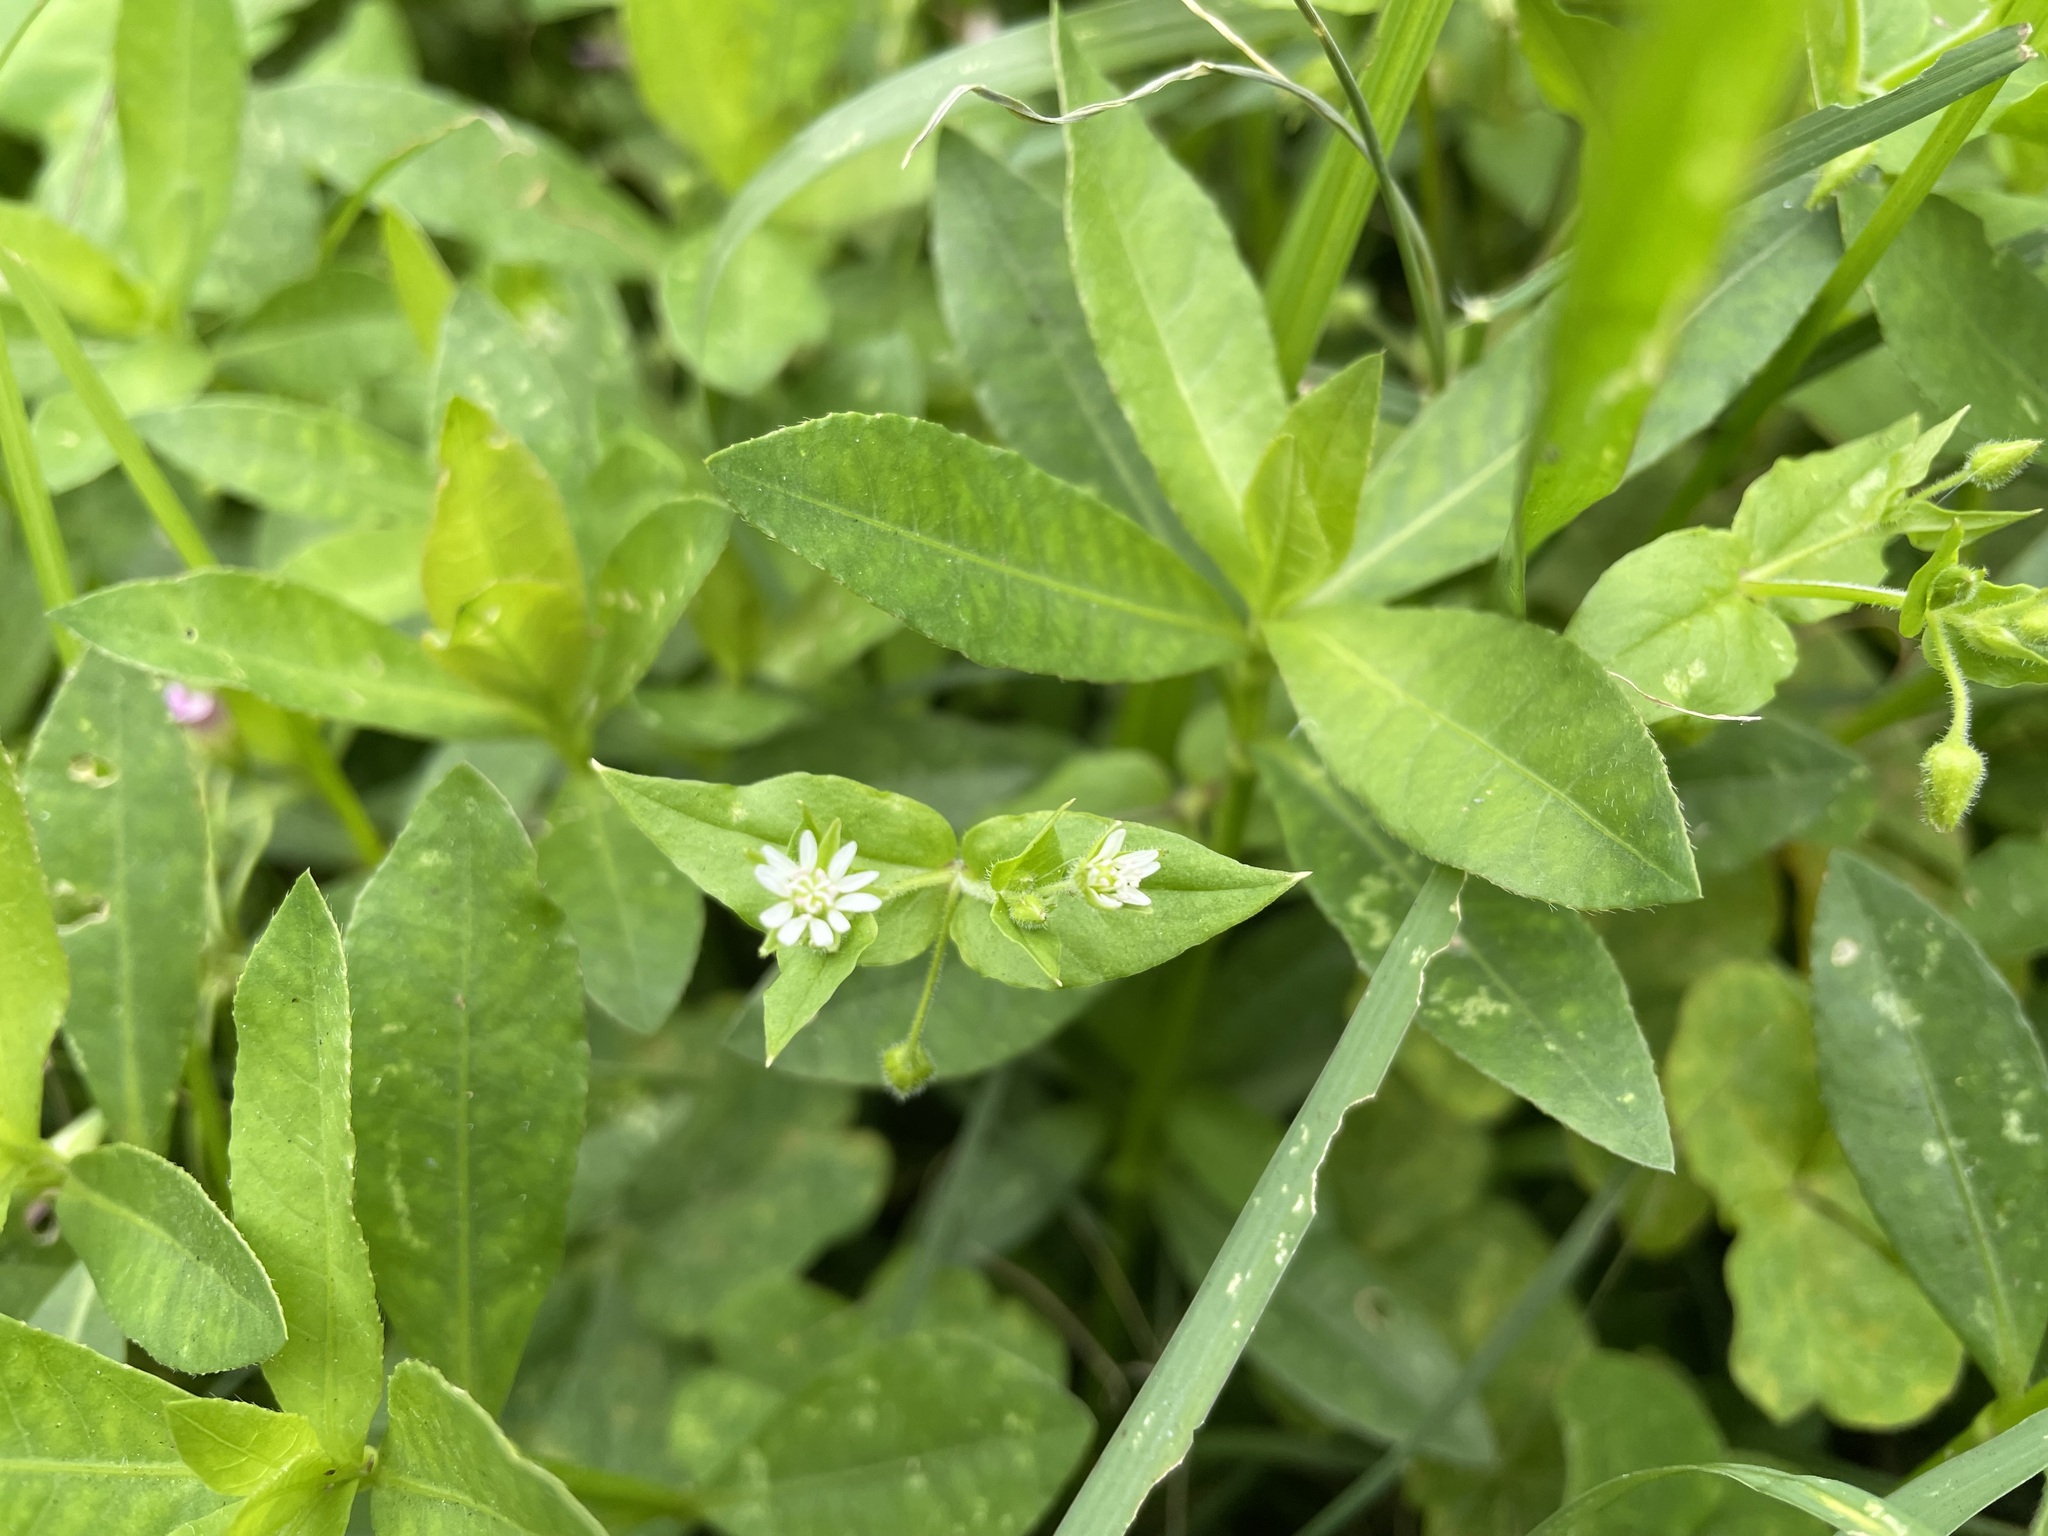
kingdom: Plantae
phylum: Tracheophyta
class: Magnoliopsida
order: Caryophyllales
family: Caryophyllaceae
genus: Stellaria
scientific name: Stellaria aquatica
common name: Water chickweed
